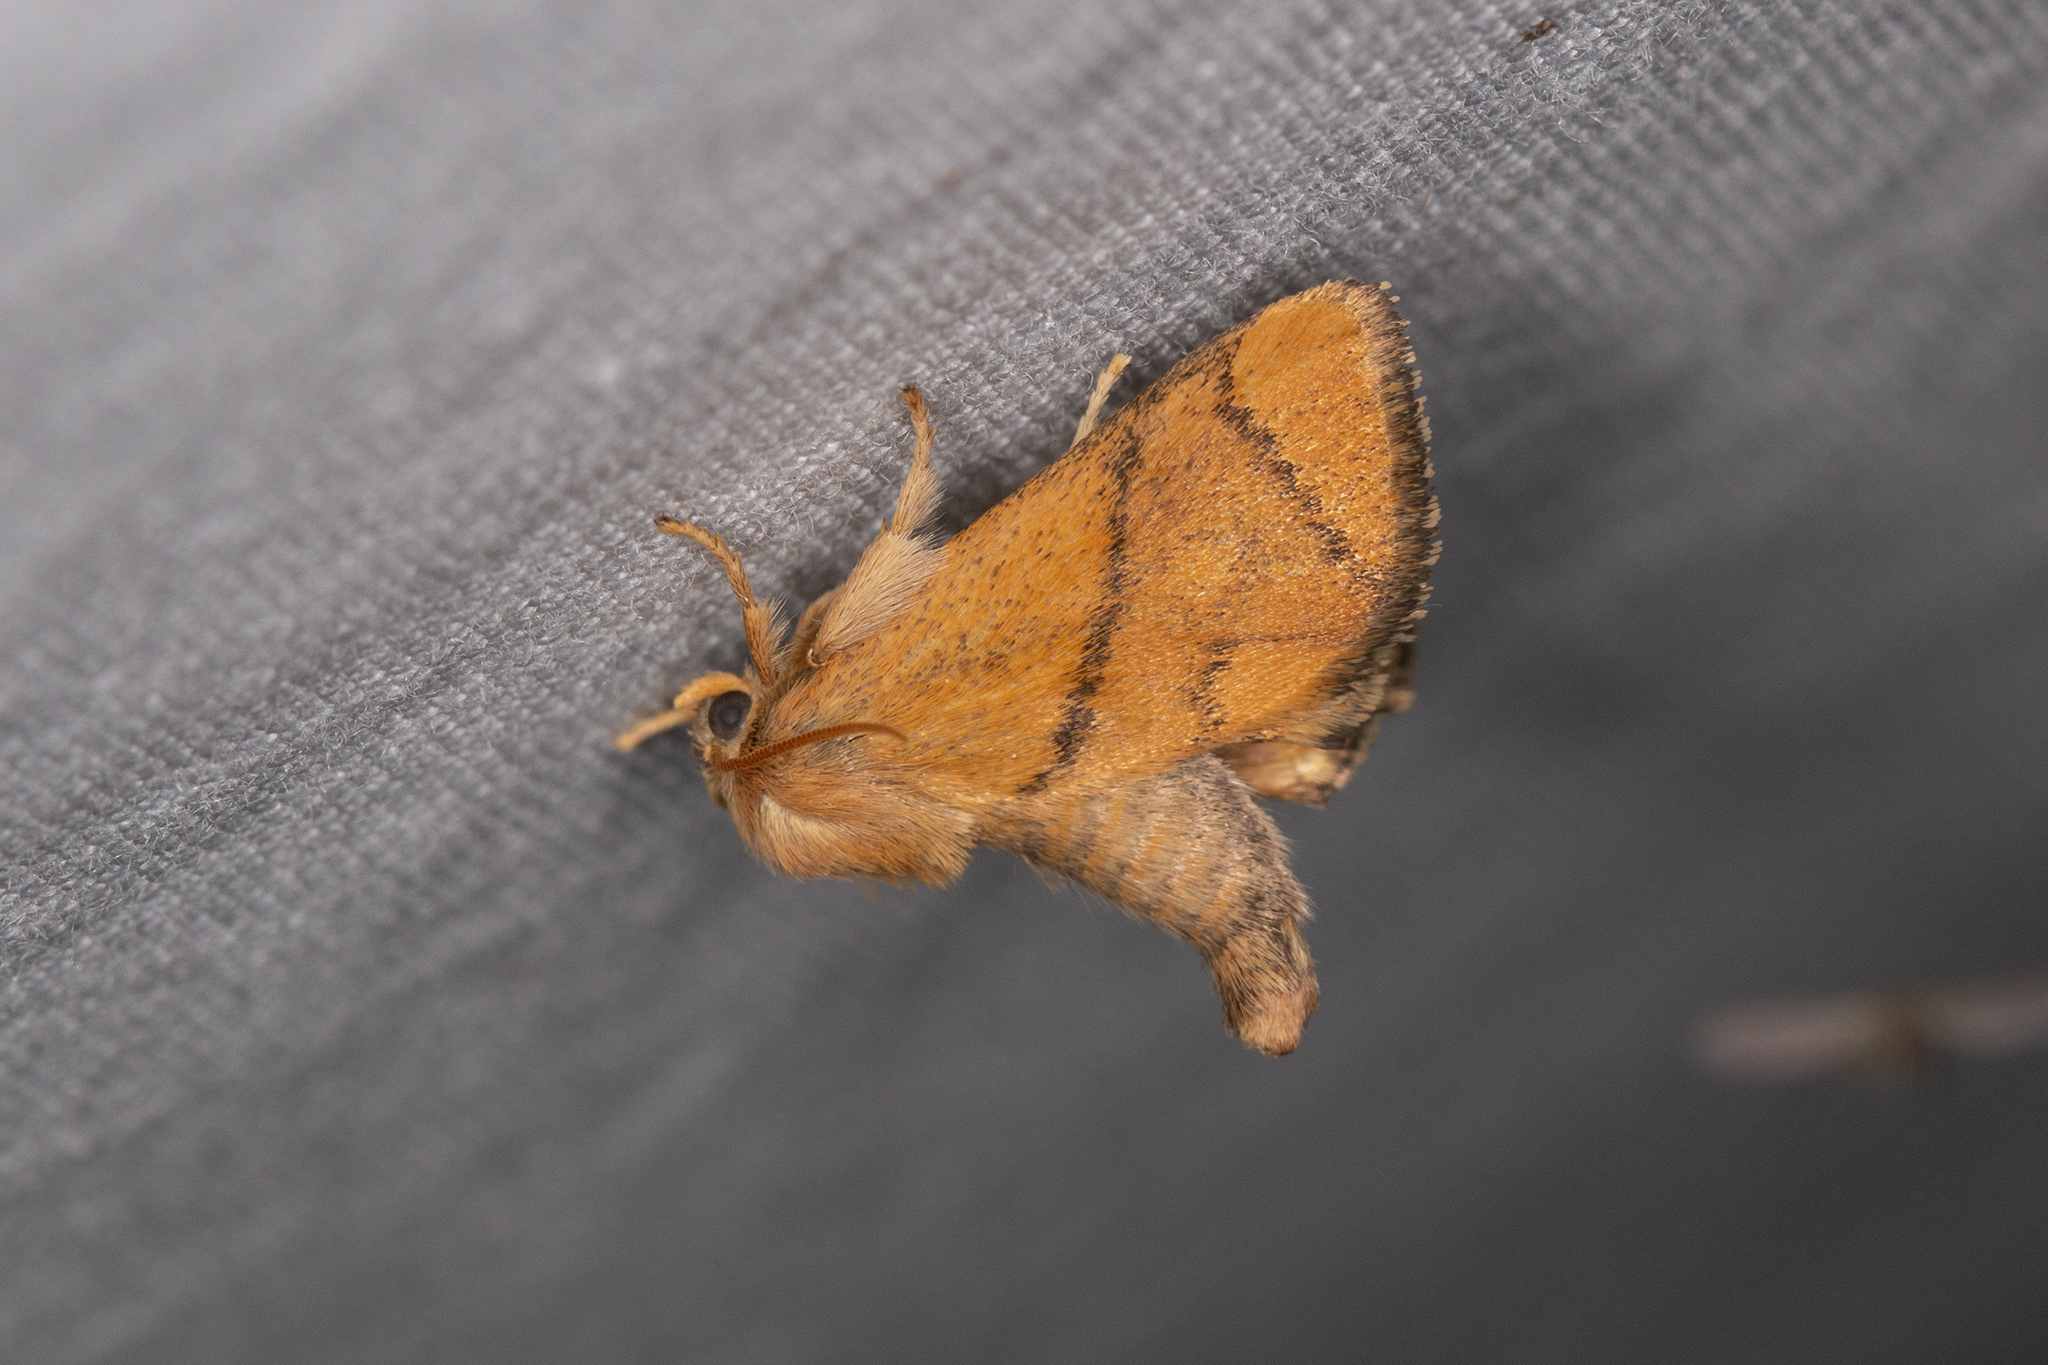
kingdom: Animalia
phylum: Arthropoda
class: Insecta
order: Lepidoptera
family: Limacodidae
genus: Apoda
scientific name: Apoda limacodes
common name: Festoon
